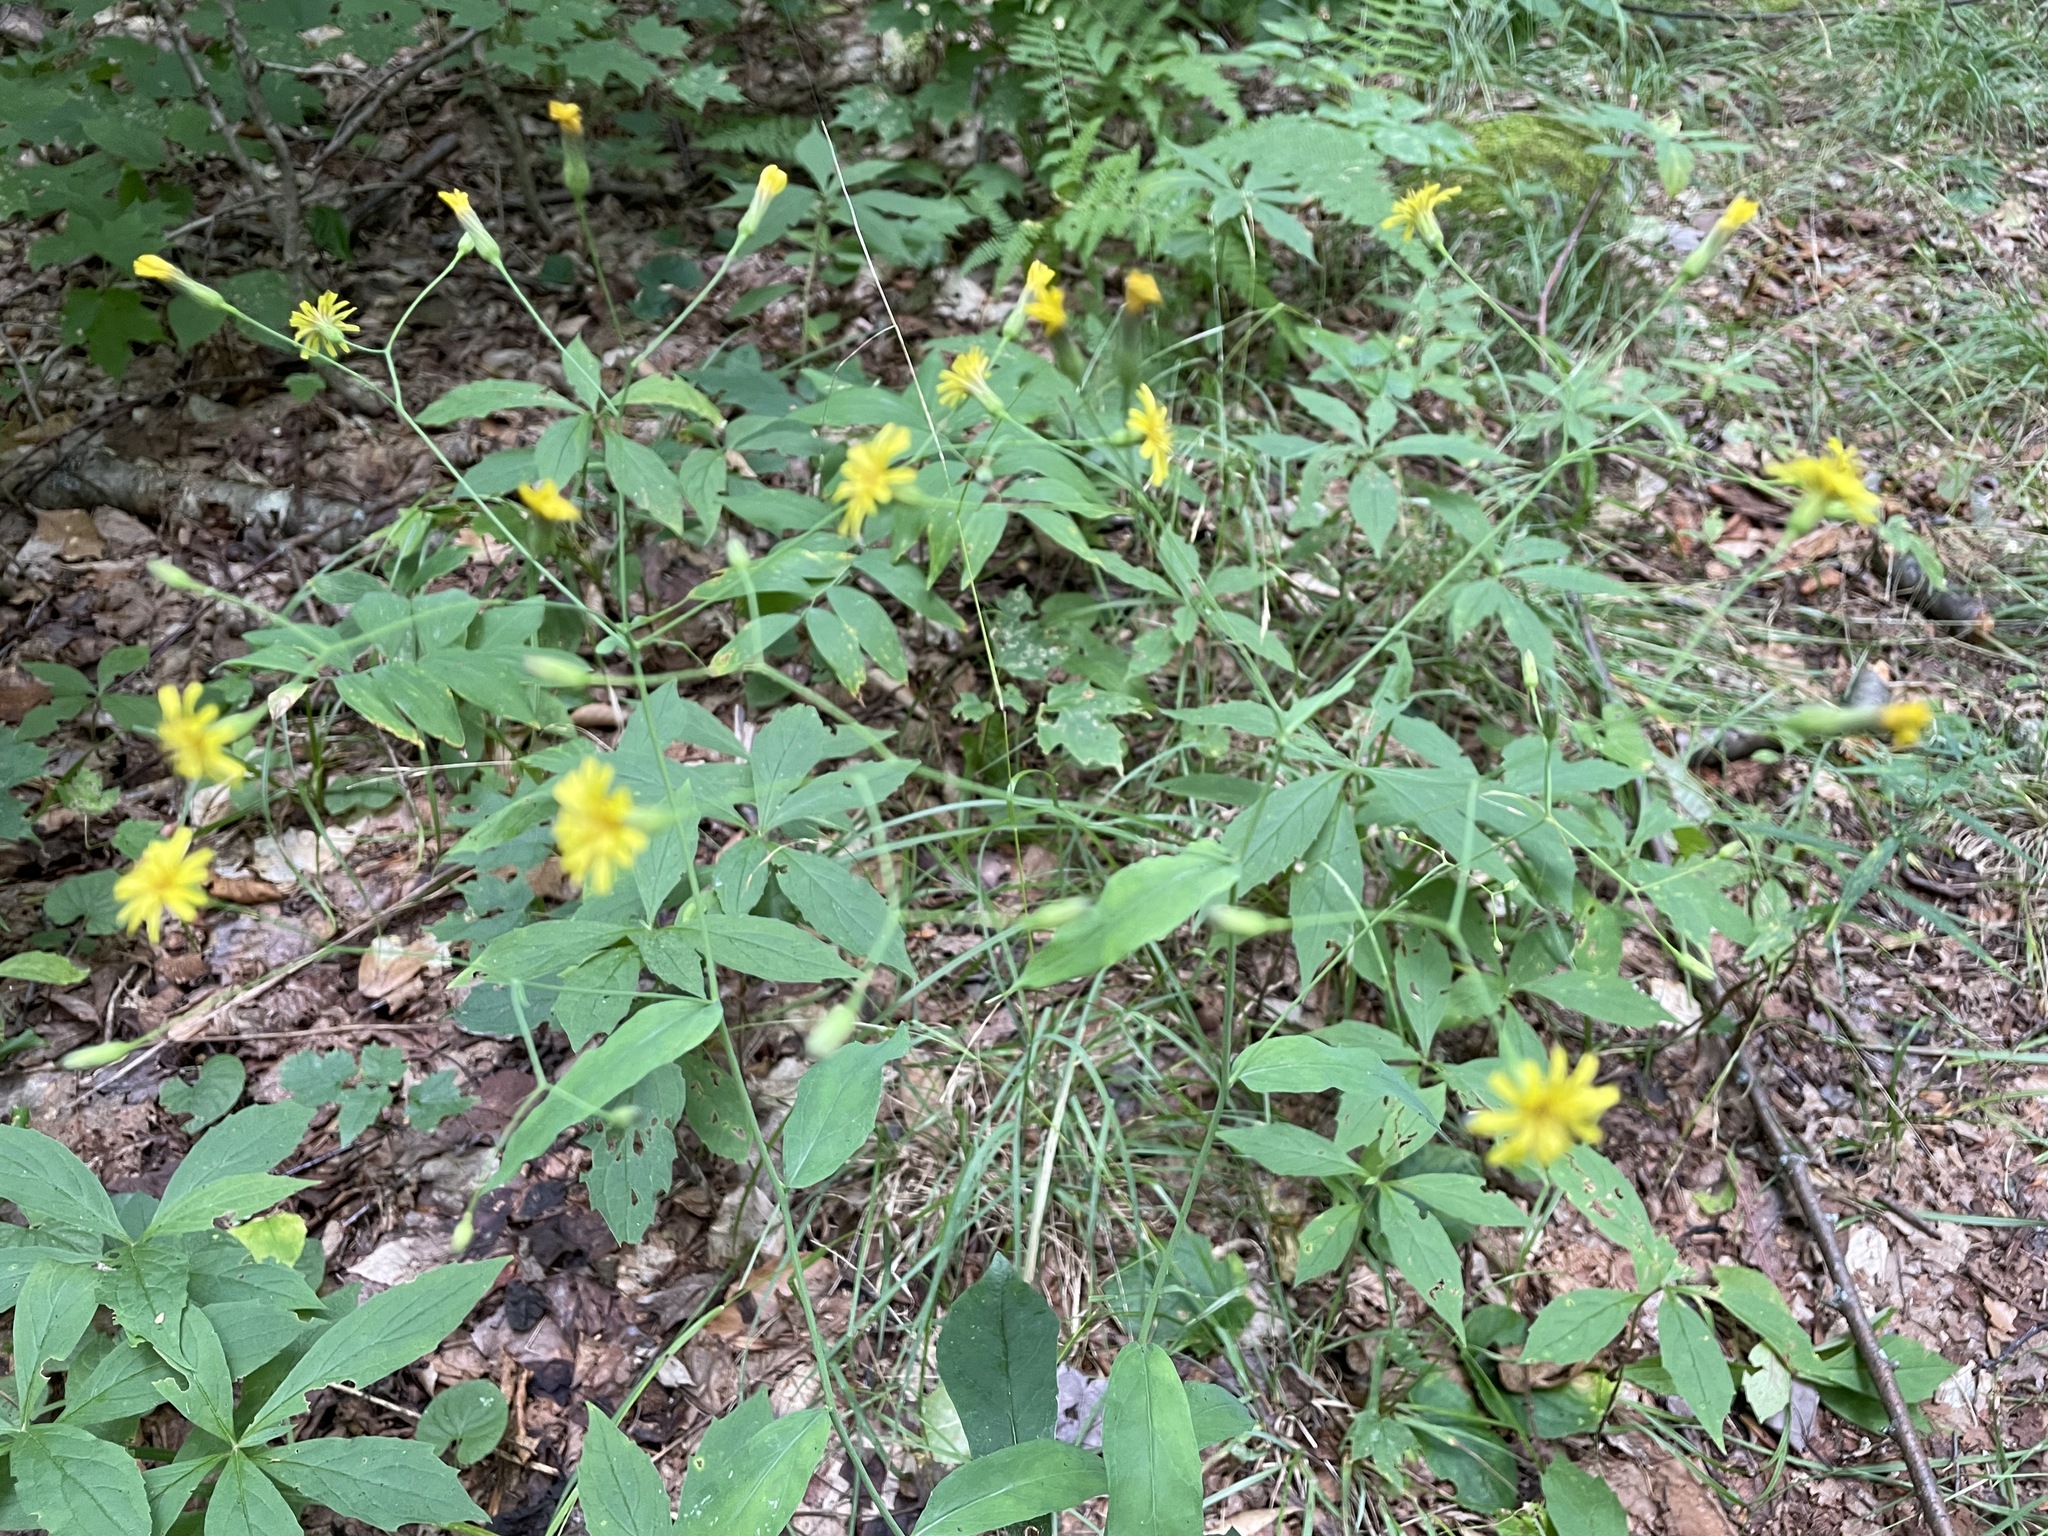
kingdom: Plantae
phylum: Tracheophyta
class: Magnoliopsida
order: Asterales
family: Asteraceae
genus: Hieracium
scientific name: Hieracium paniculatum
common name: Allegheny hawkweed
